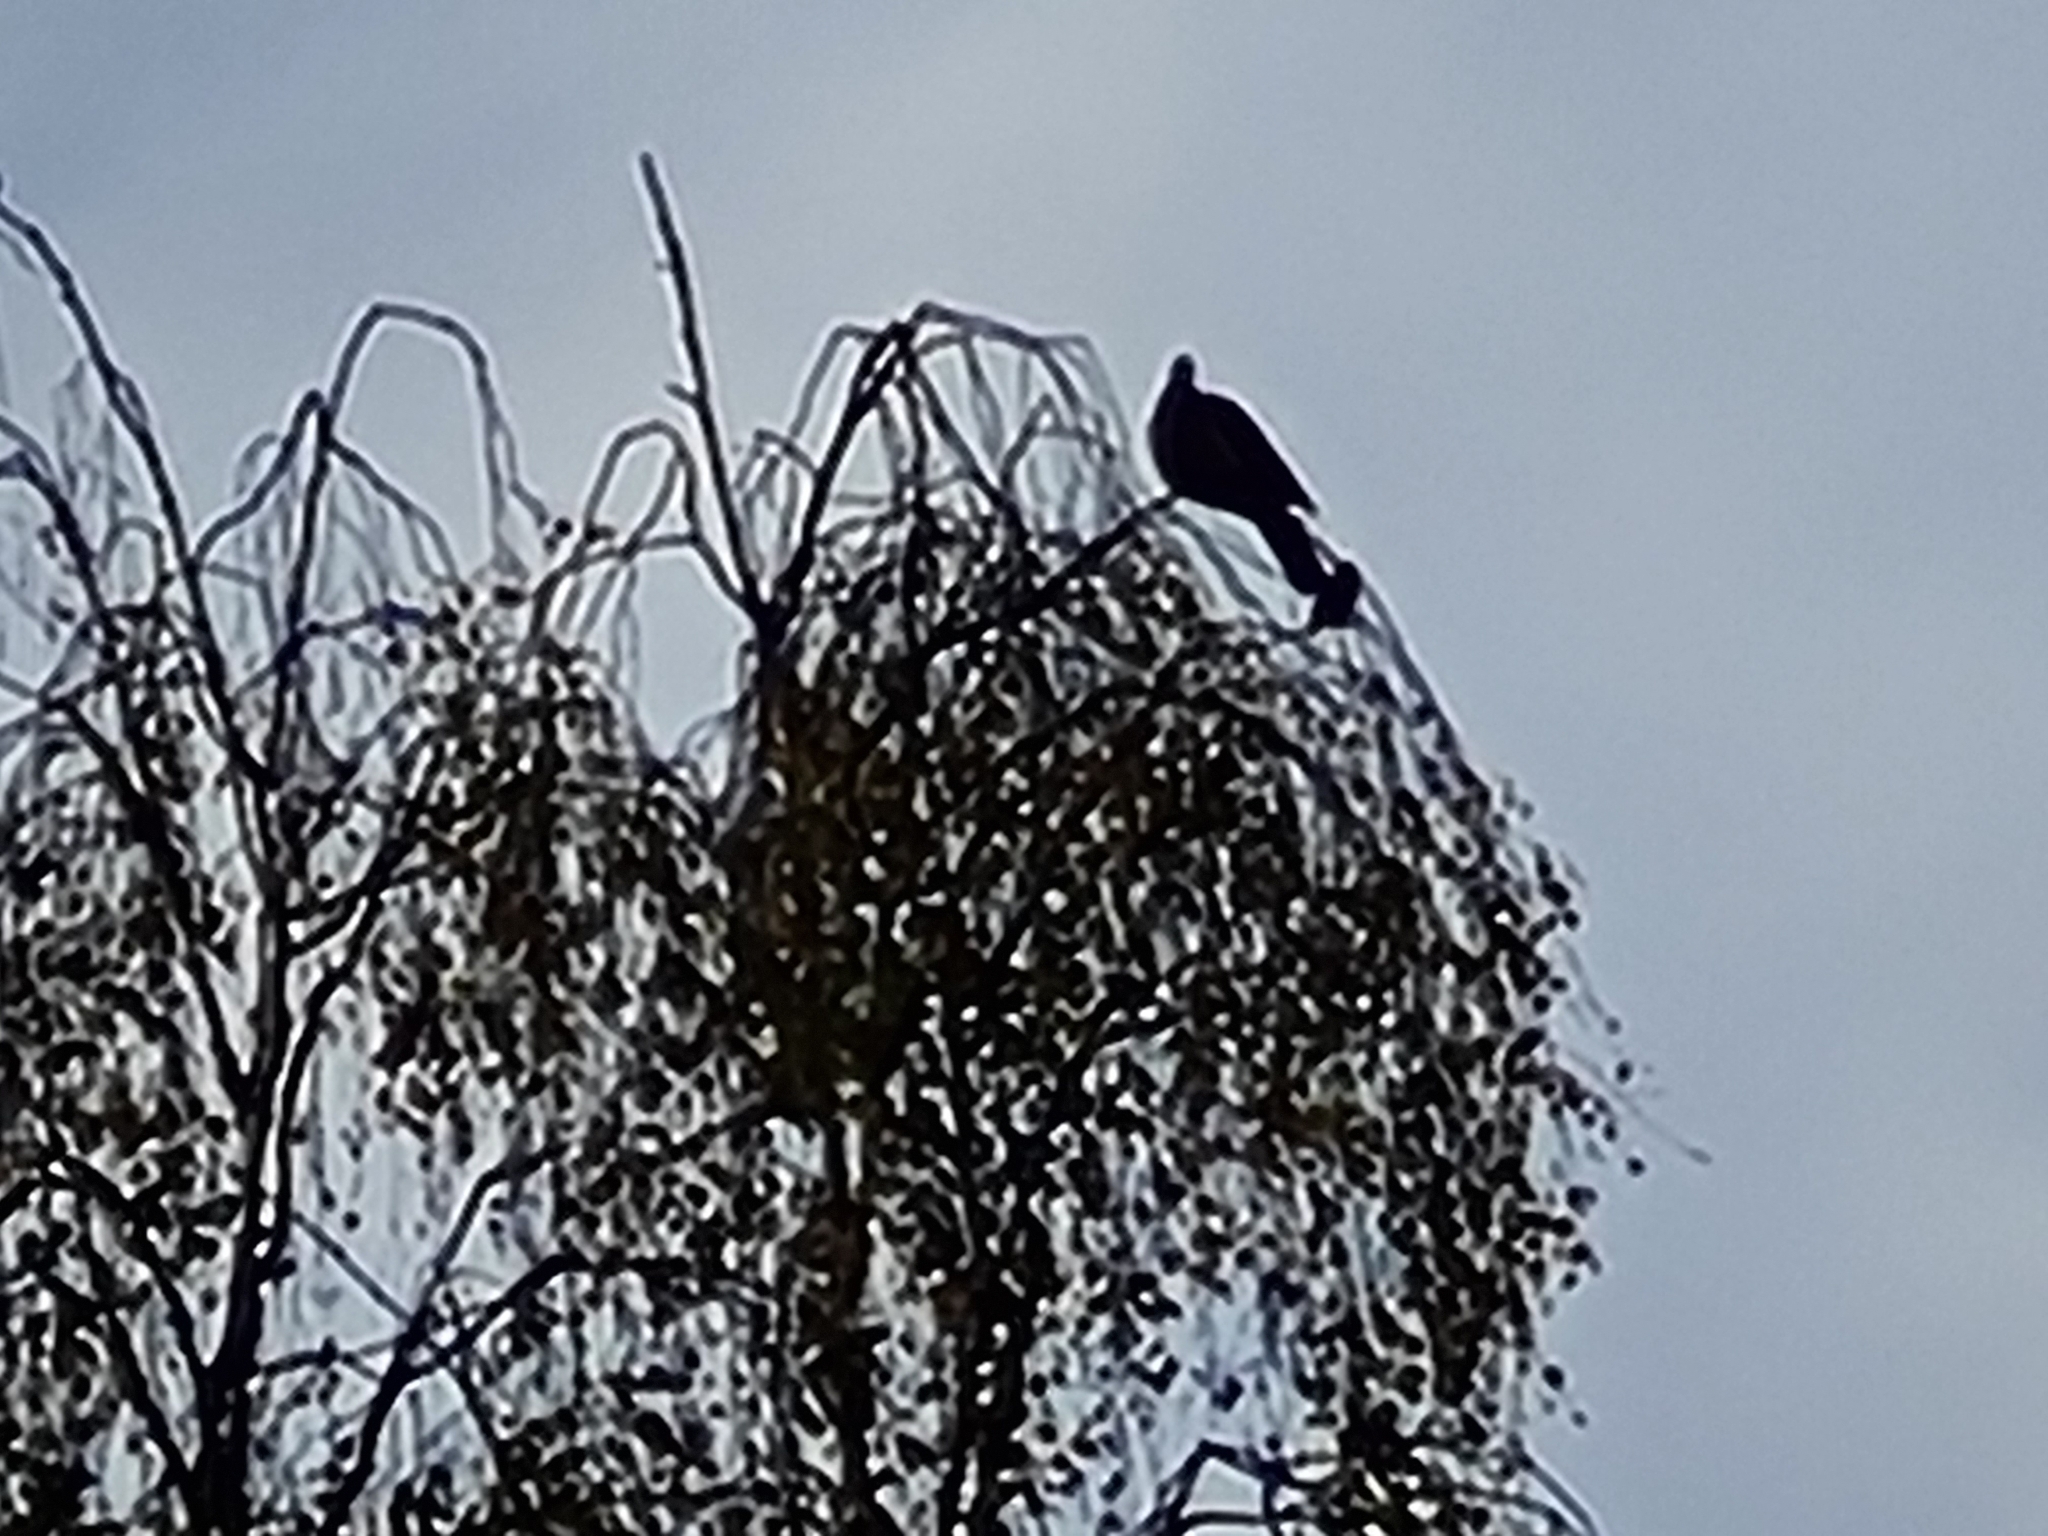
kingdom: Animalia
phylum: Chordata
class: Aves
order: Columbiformes
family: Columbidae
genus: Columba
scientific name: Columba palumbus
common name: Common wood pigeon
